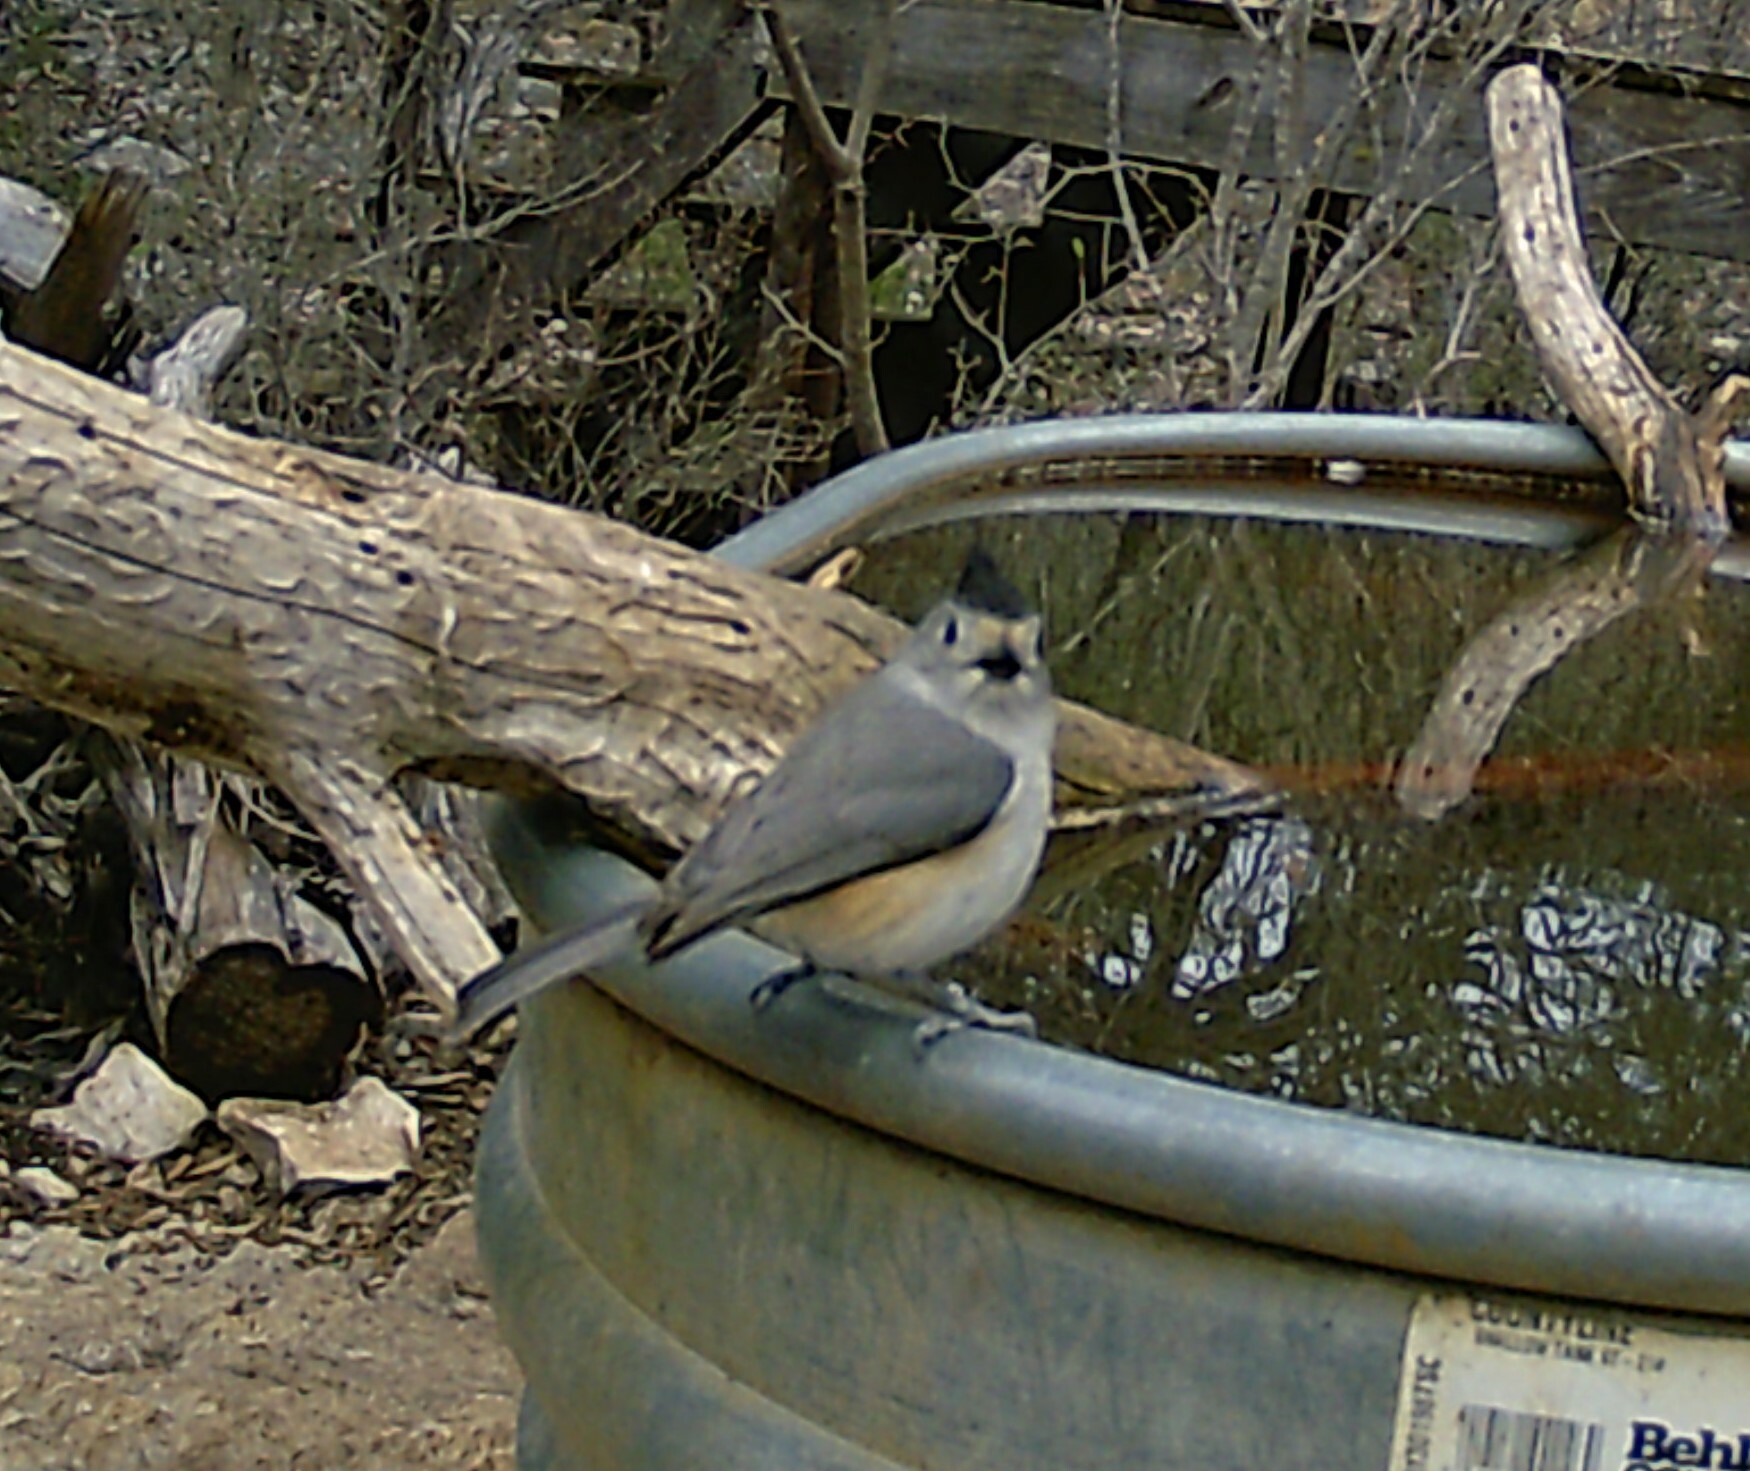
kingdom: Animalia
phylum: Chordata
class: Aves
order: Passeriformes
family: Paridae
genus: Baeolophus
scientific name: Baeolophus atricristatus
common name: Black-crested titmouse
